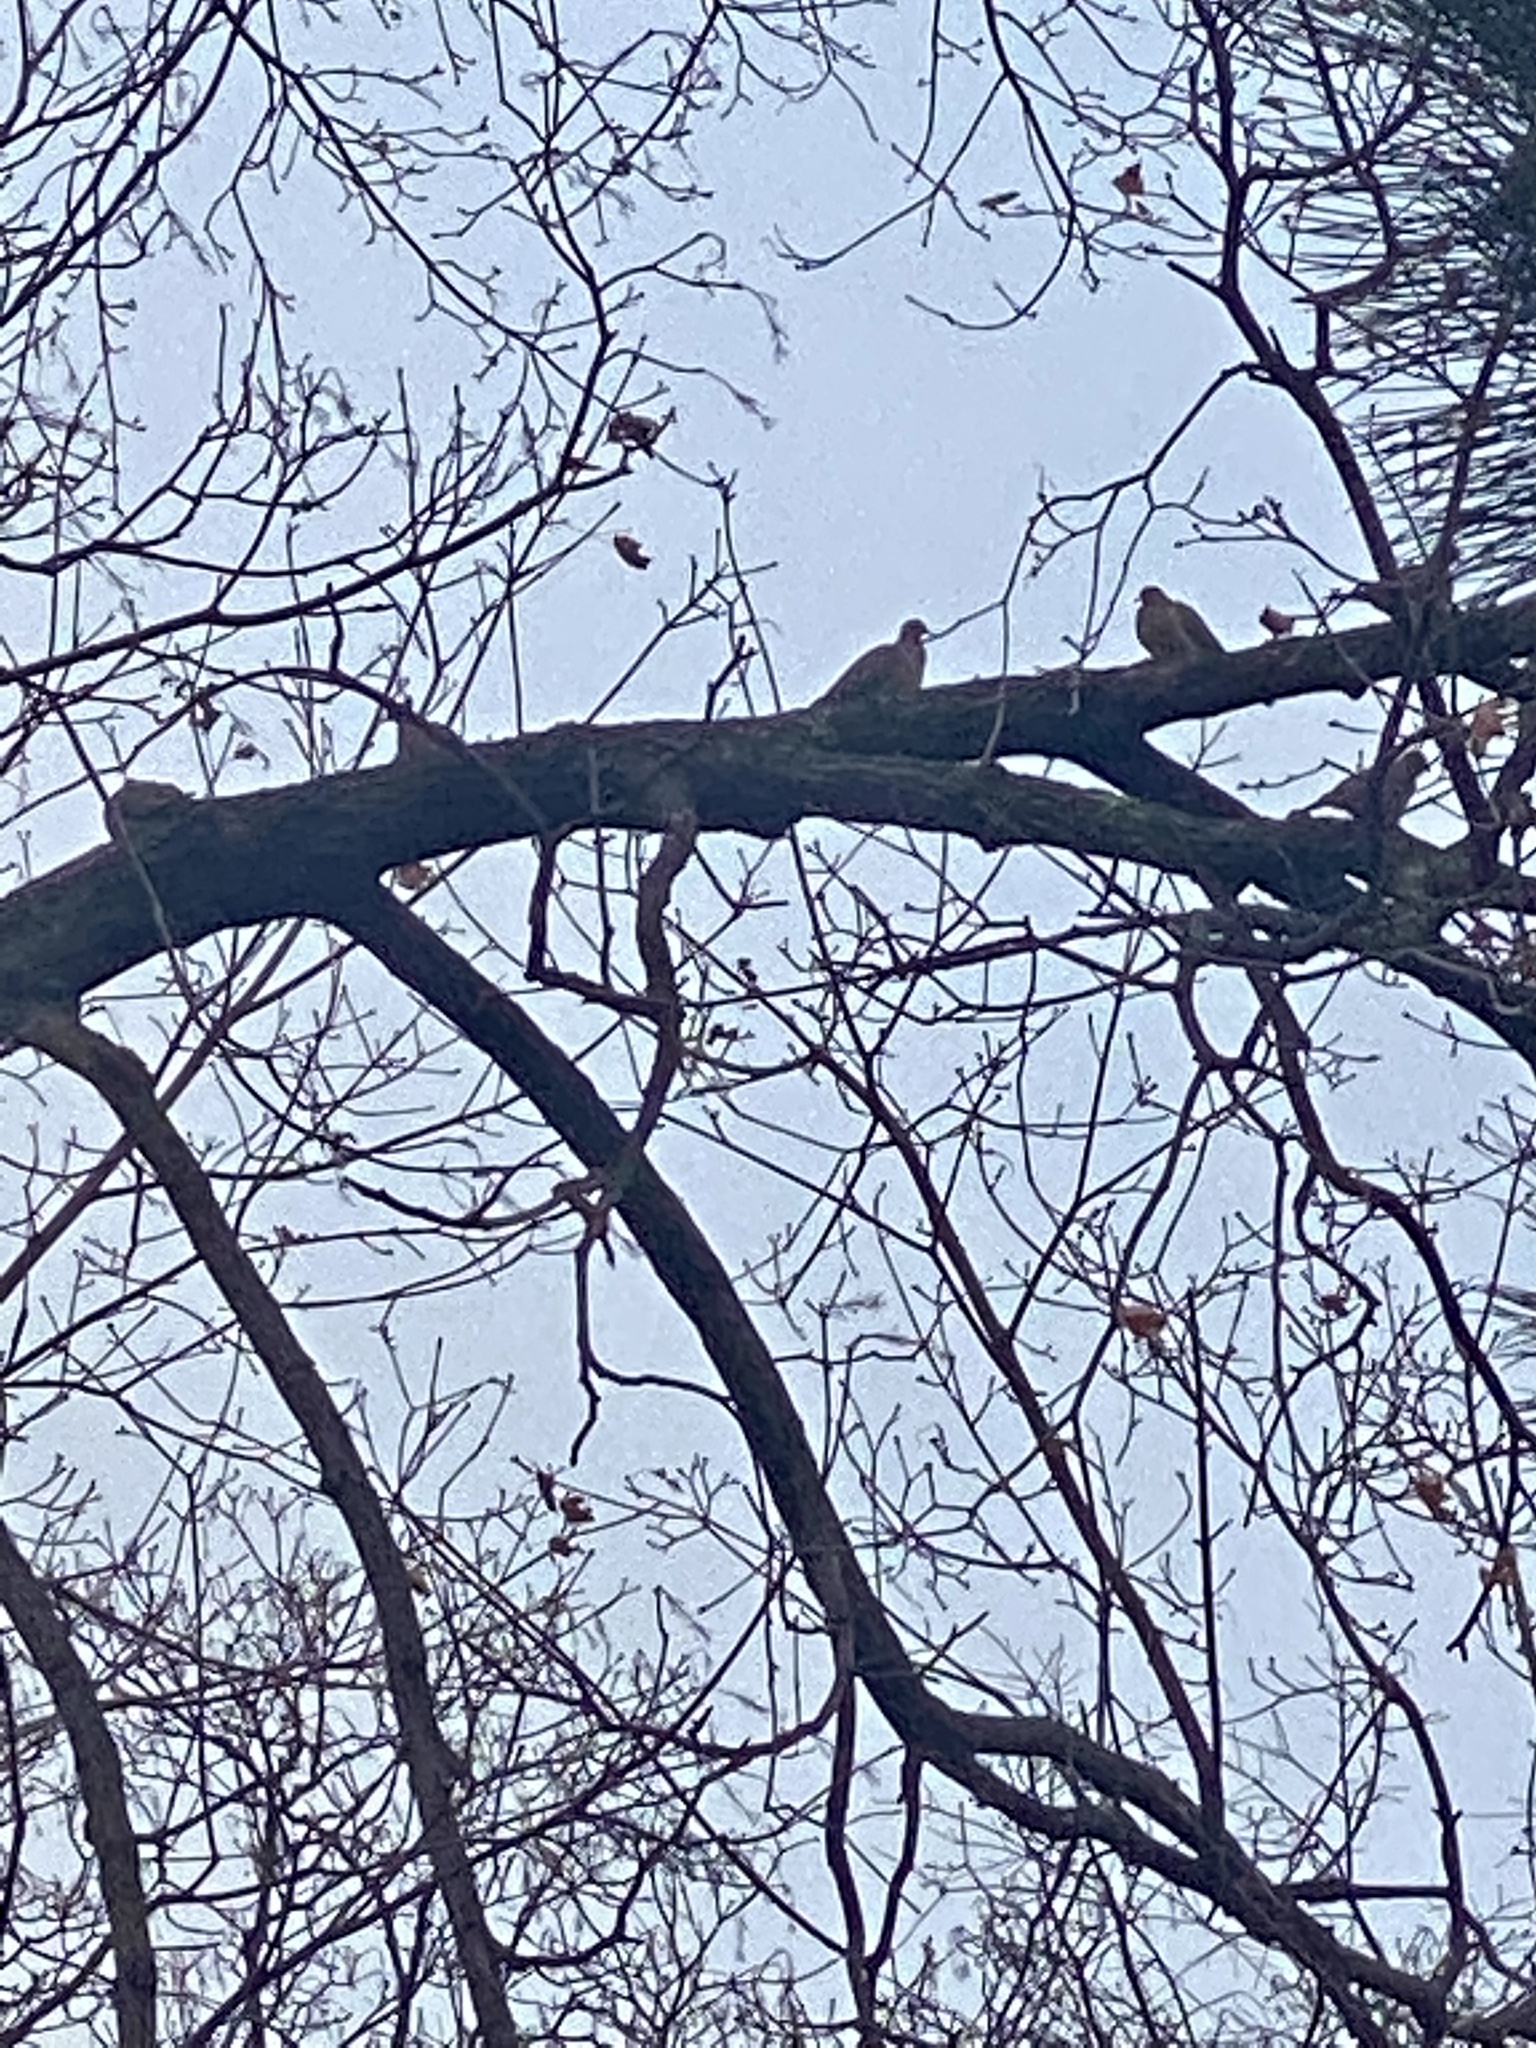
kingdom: Animalia
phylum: Chordata
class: Aves
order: Columbiformes
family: Columbidae
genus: Zenaida
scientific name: Zenaida macroura
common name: Mourning dove
